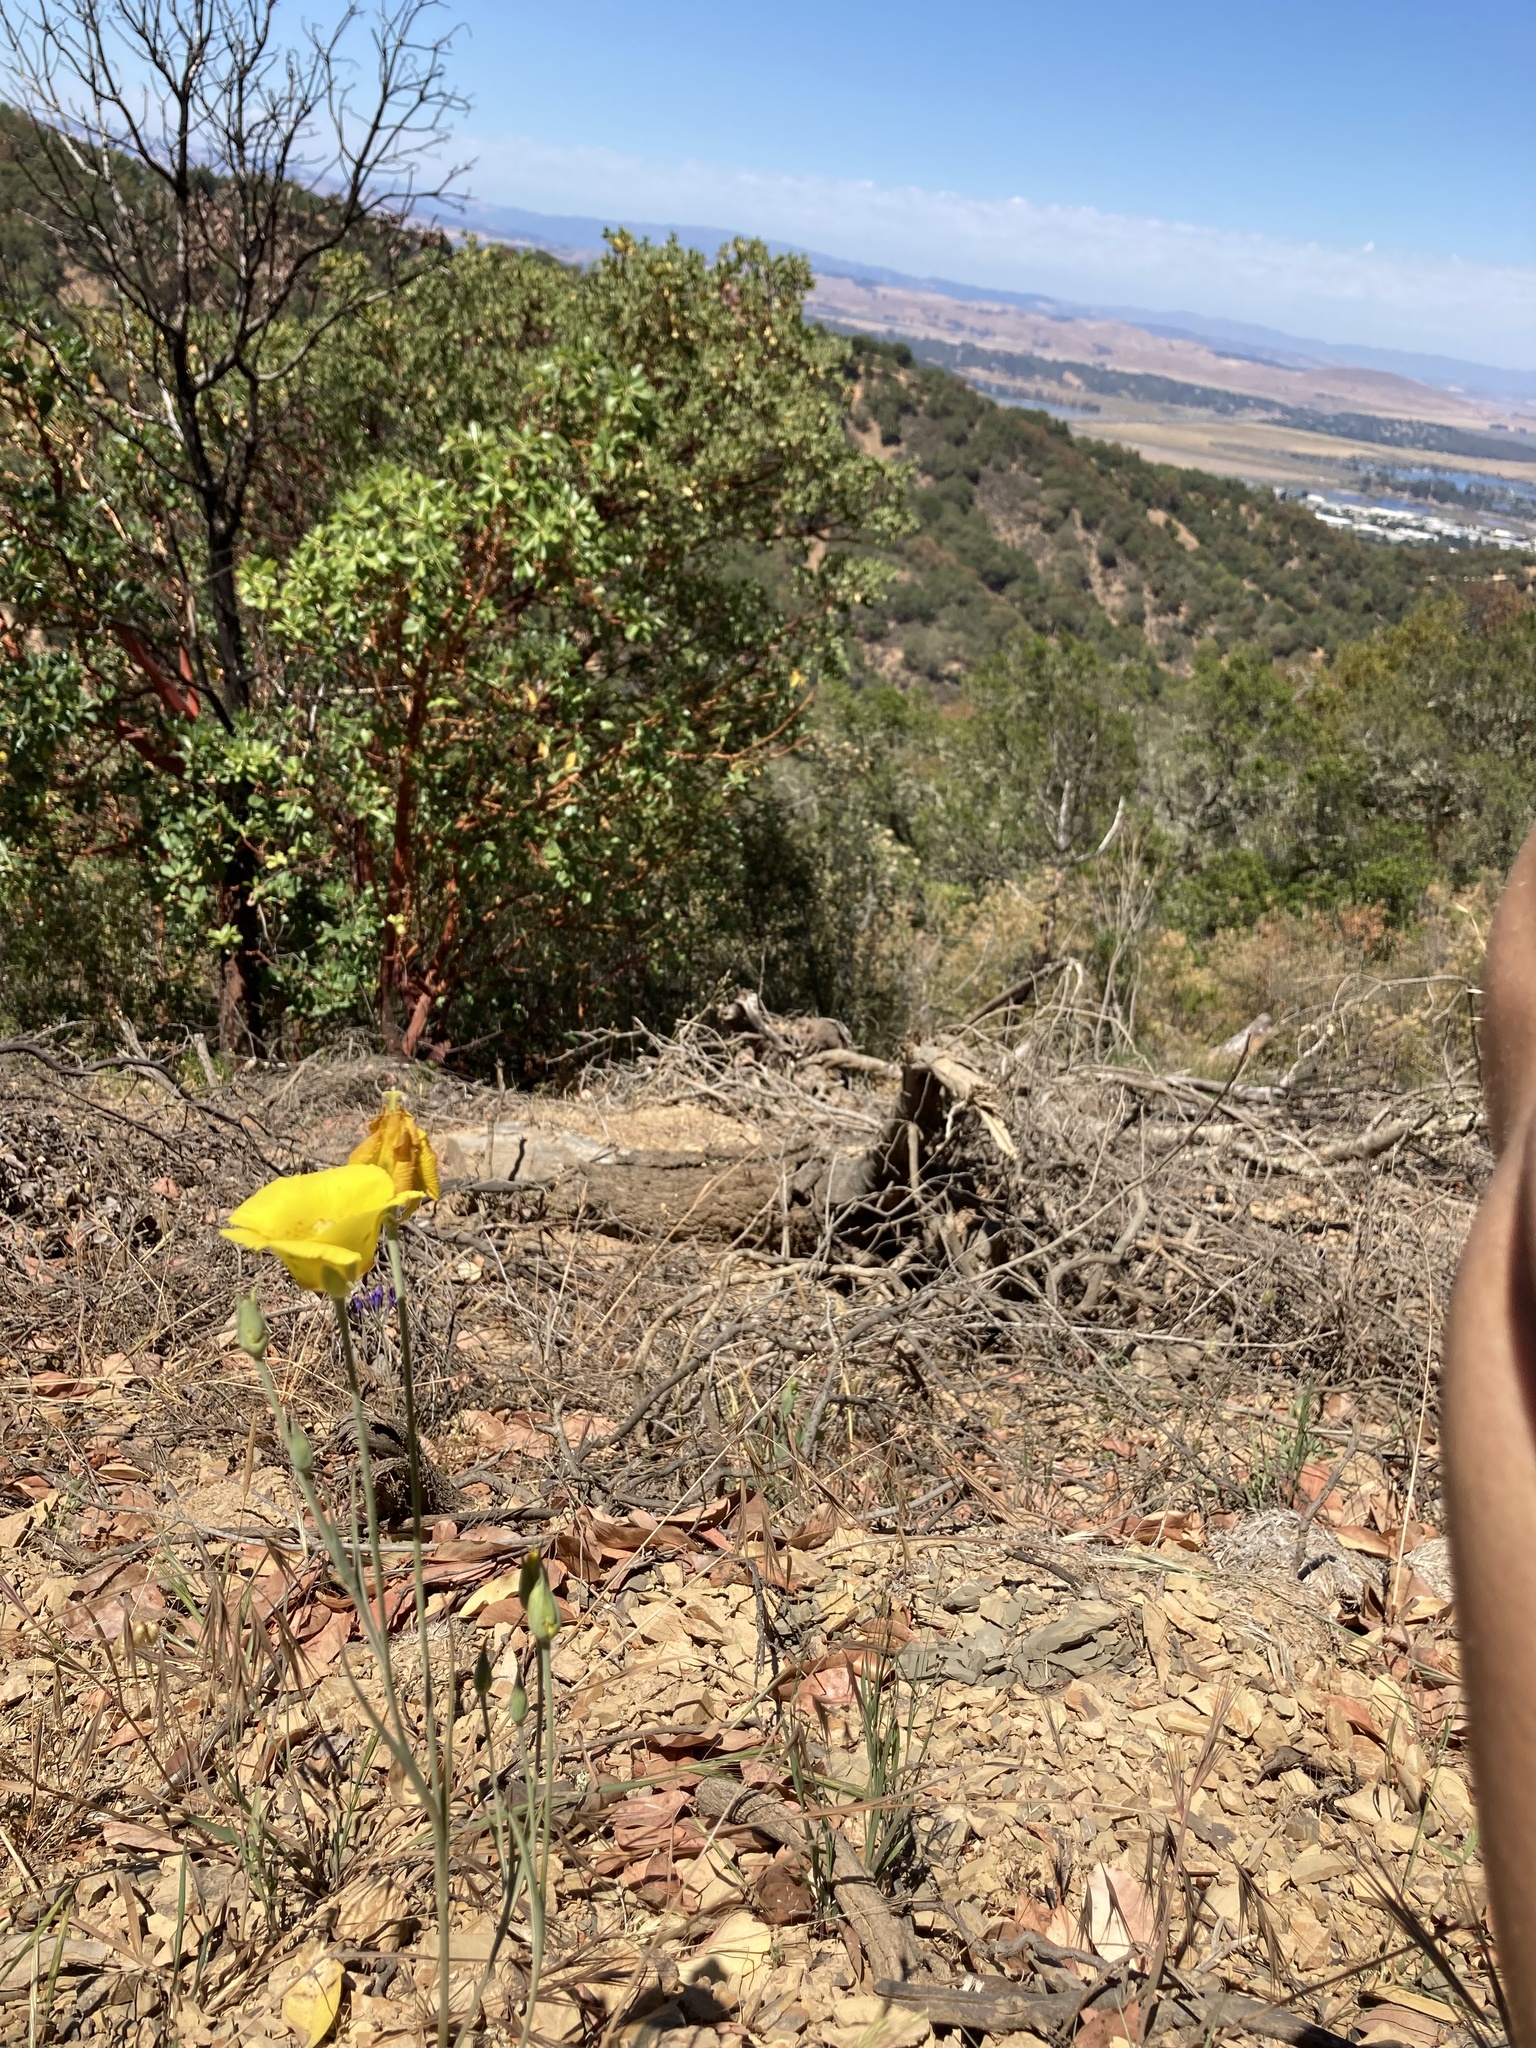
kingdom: Plantae
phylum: Tracheophyta
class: Liliopsida
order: Liliales
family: Liliaceae
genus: Calochortus
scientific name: Calochortus luteus
